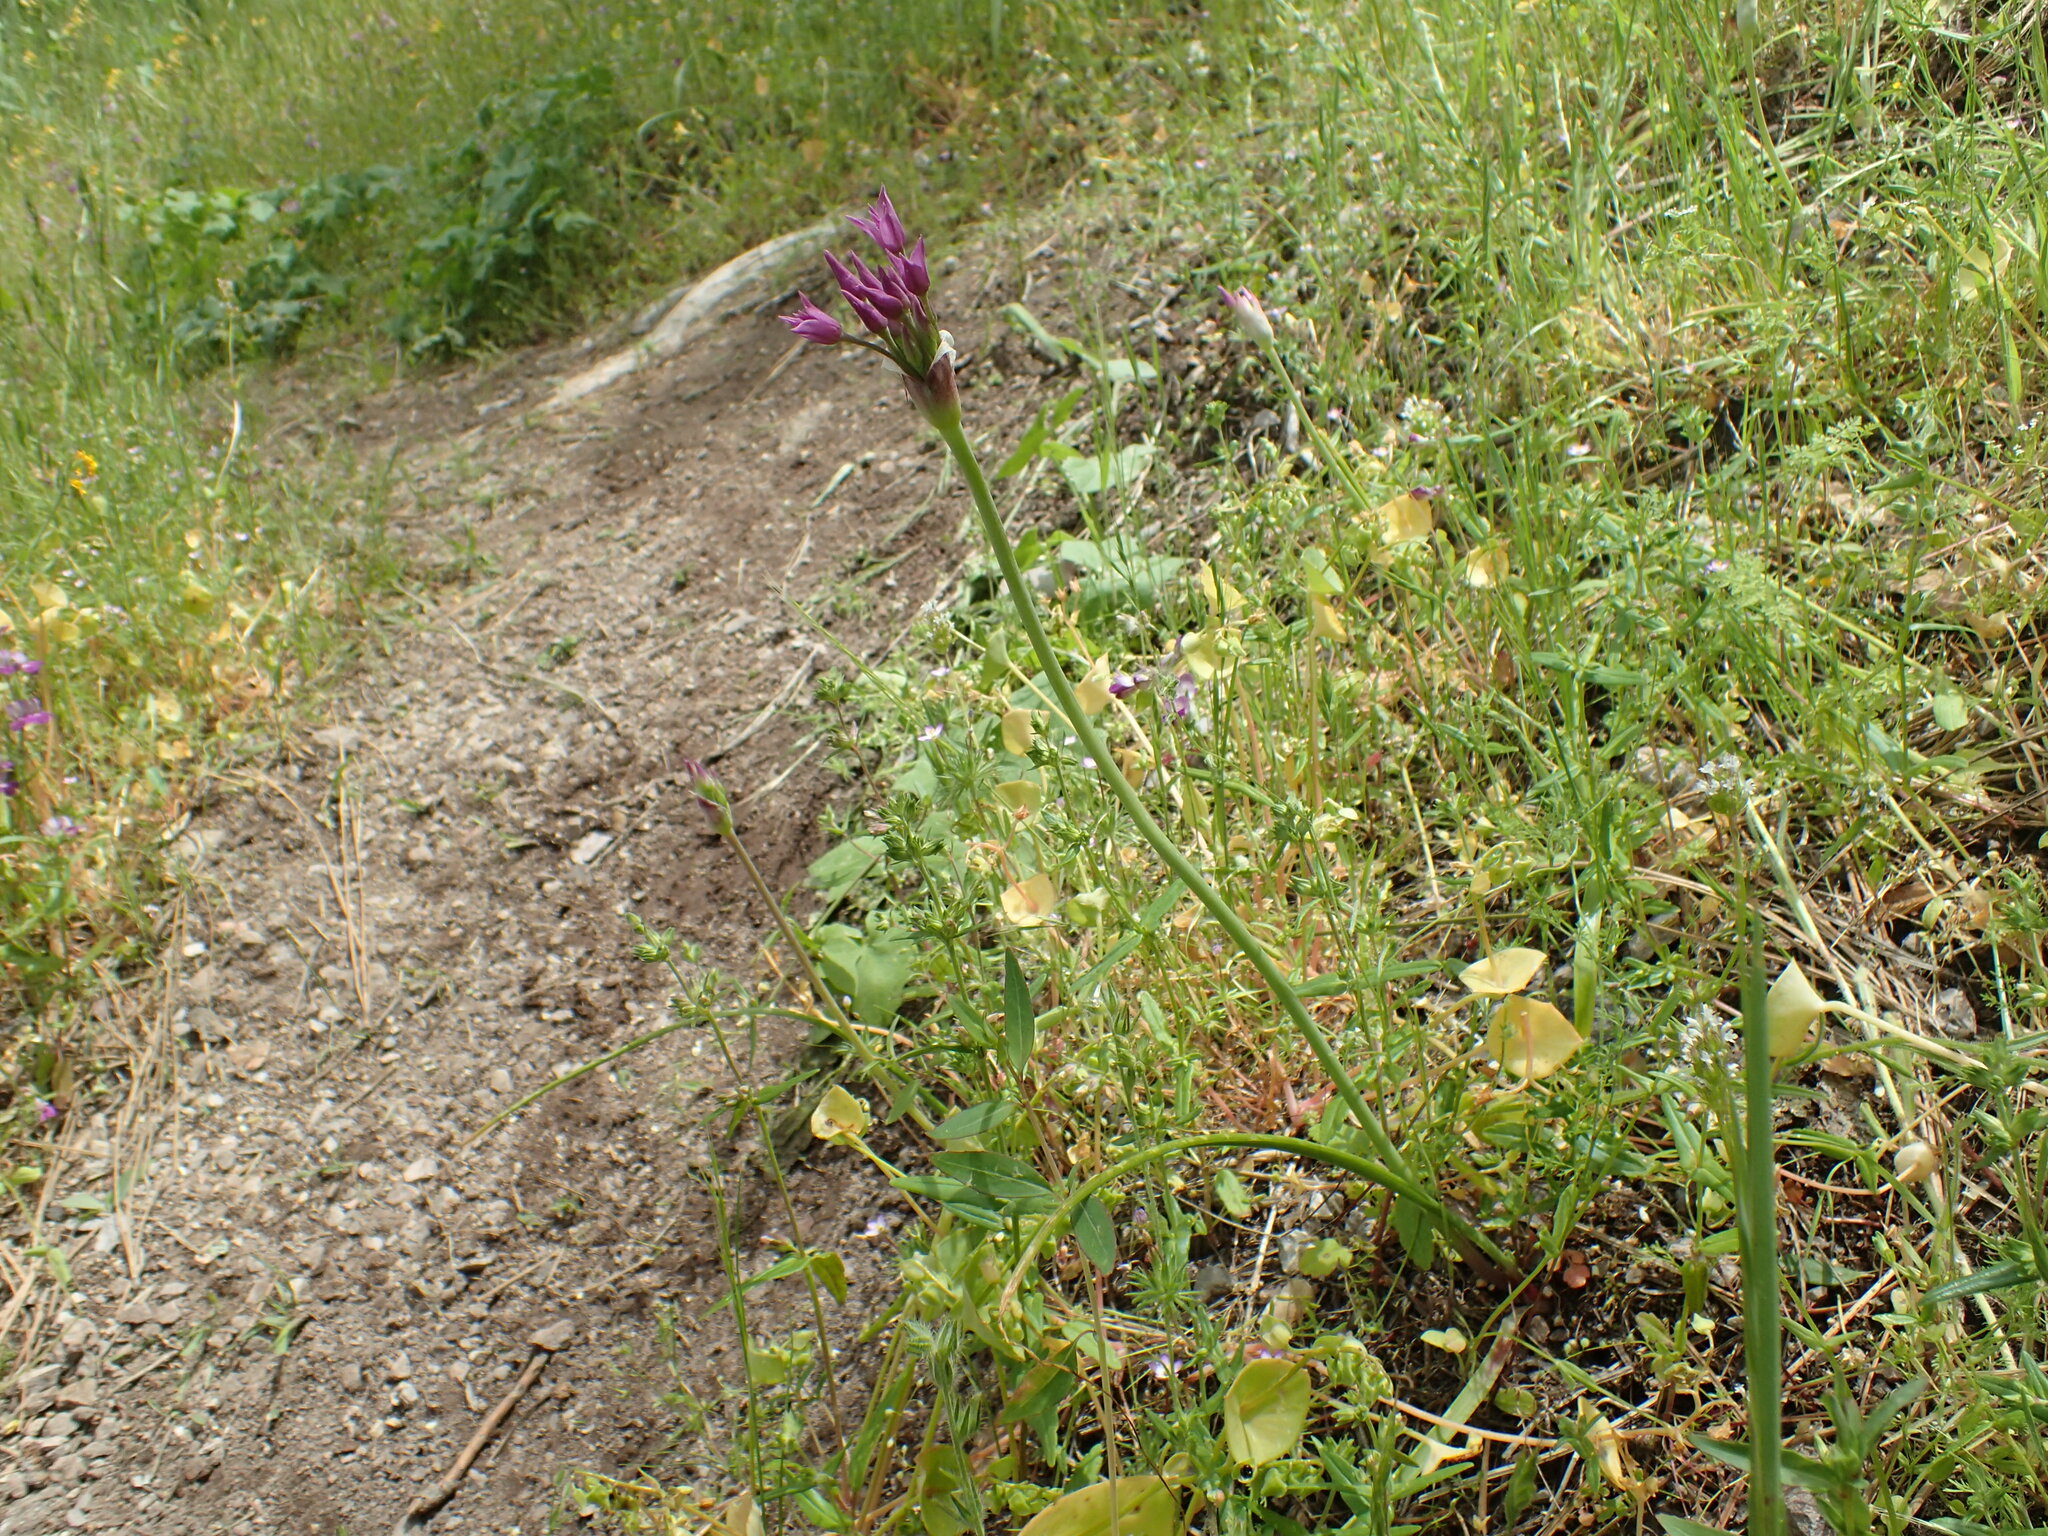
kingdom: Plantae
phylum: Tracheophyta
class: Liliopsida
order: Asparagales
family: Amaryllidaceae
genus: Allium
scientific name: Allium crispum
